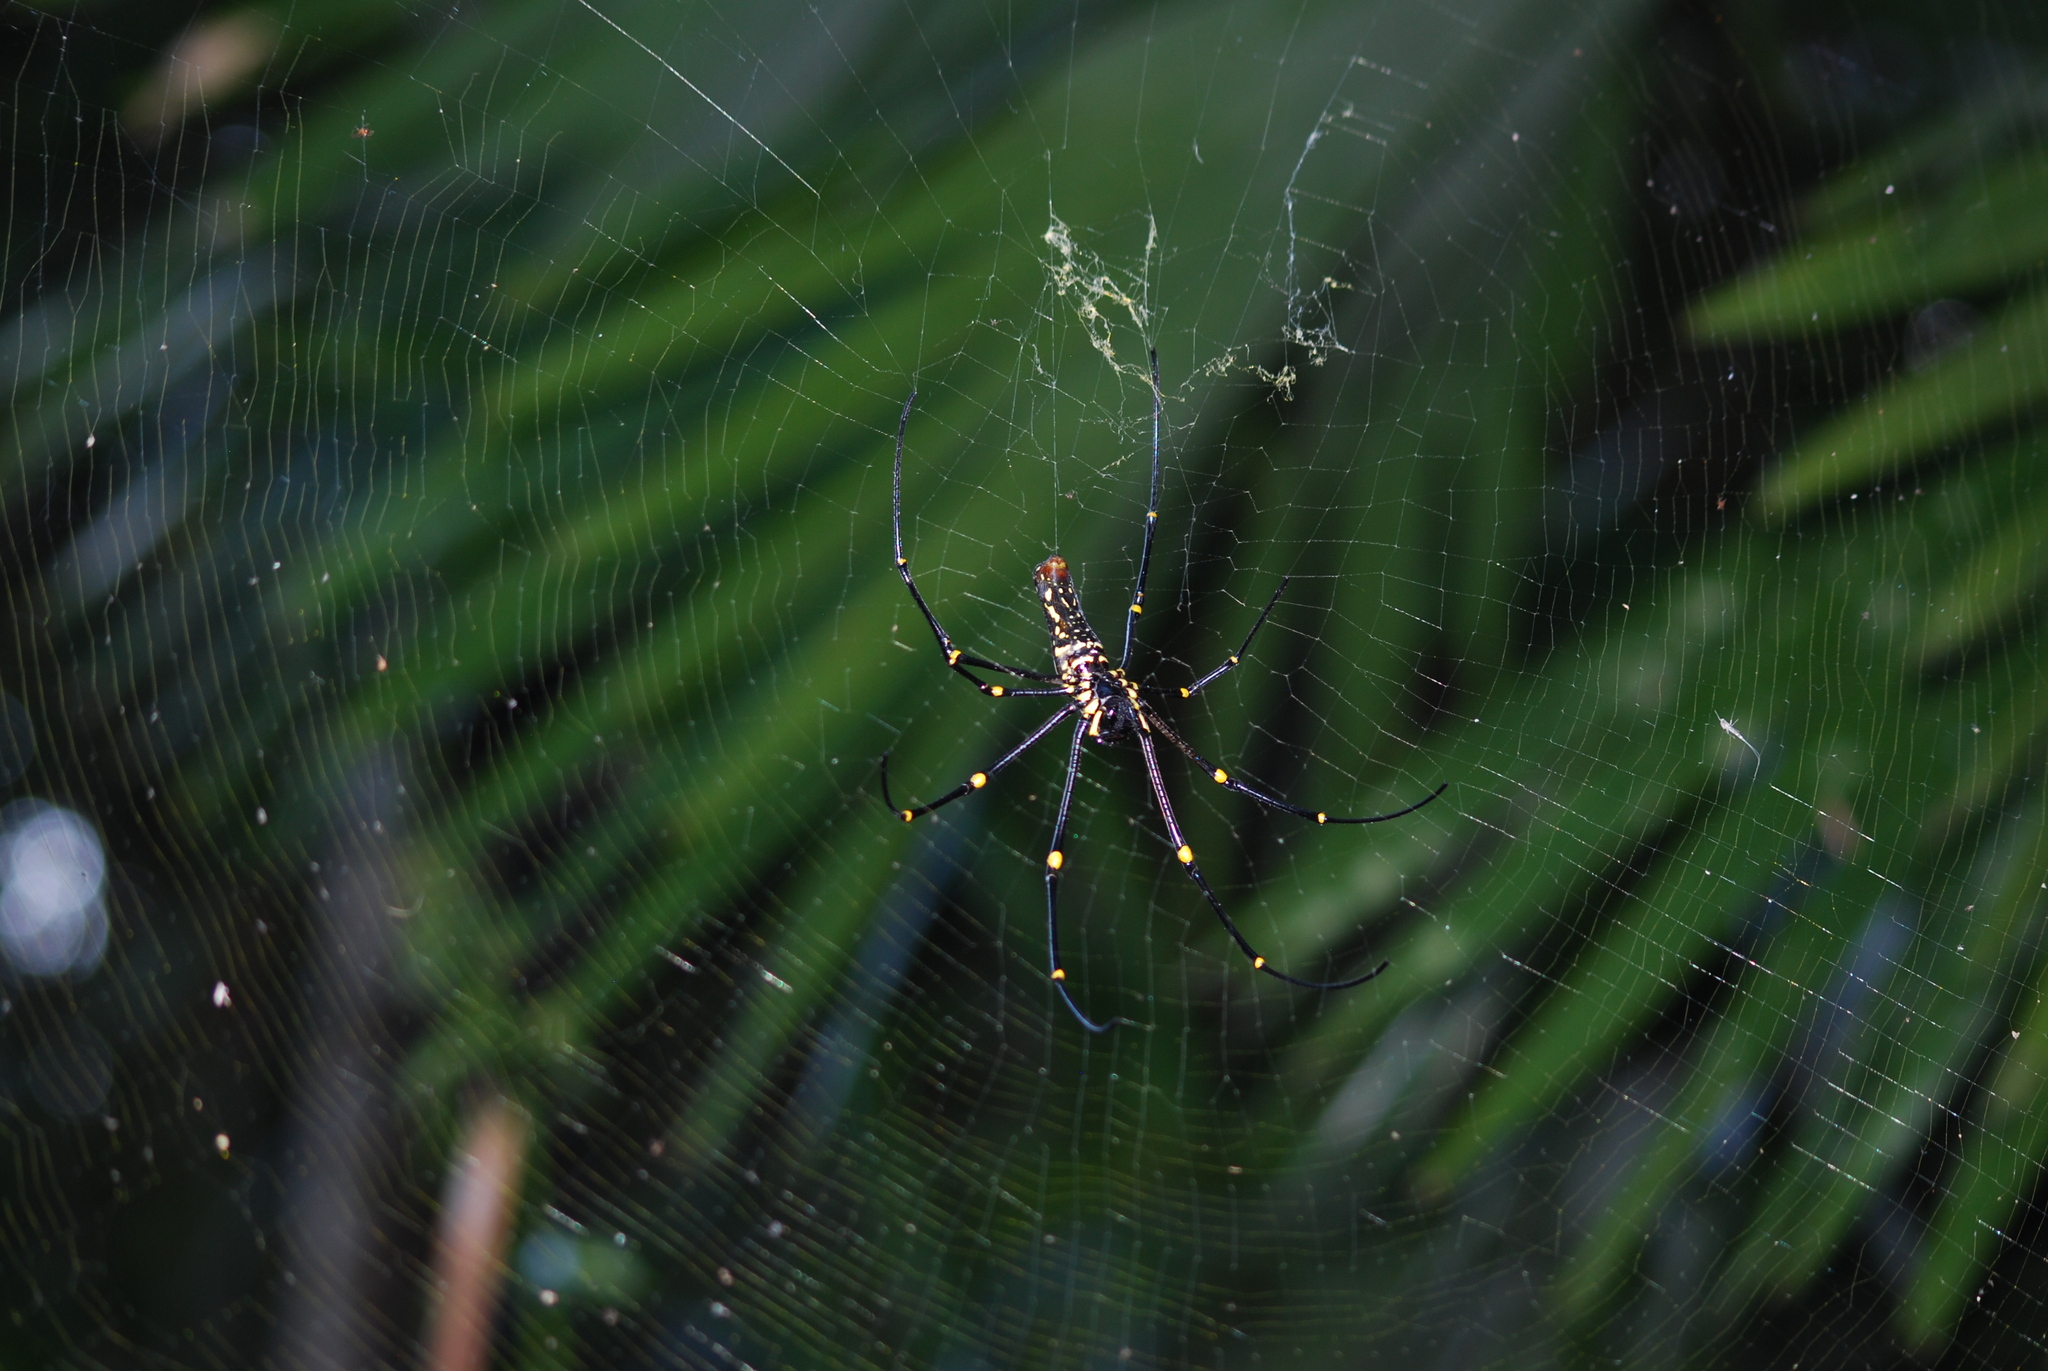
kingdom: Animalia
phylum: Arthropoda
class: Arachnida
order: Araneae
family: Araneidae
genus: Nephila
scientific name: Nephila pilipes
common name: Giant golden orb weaver
